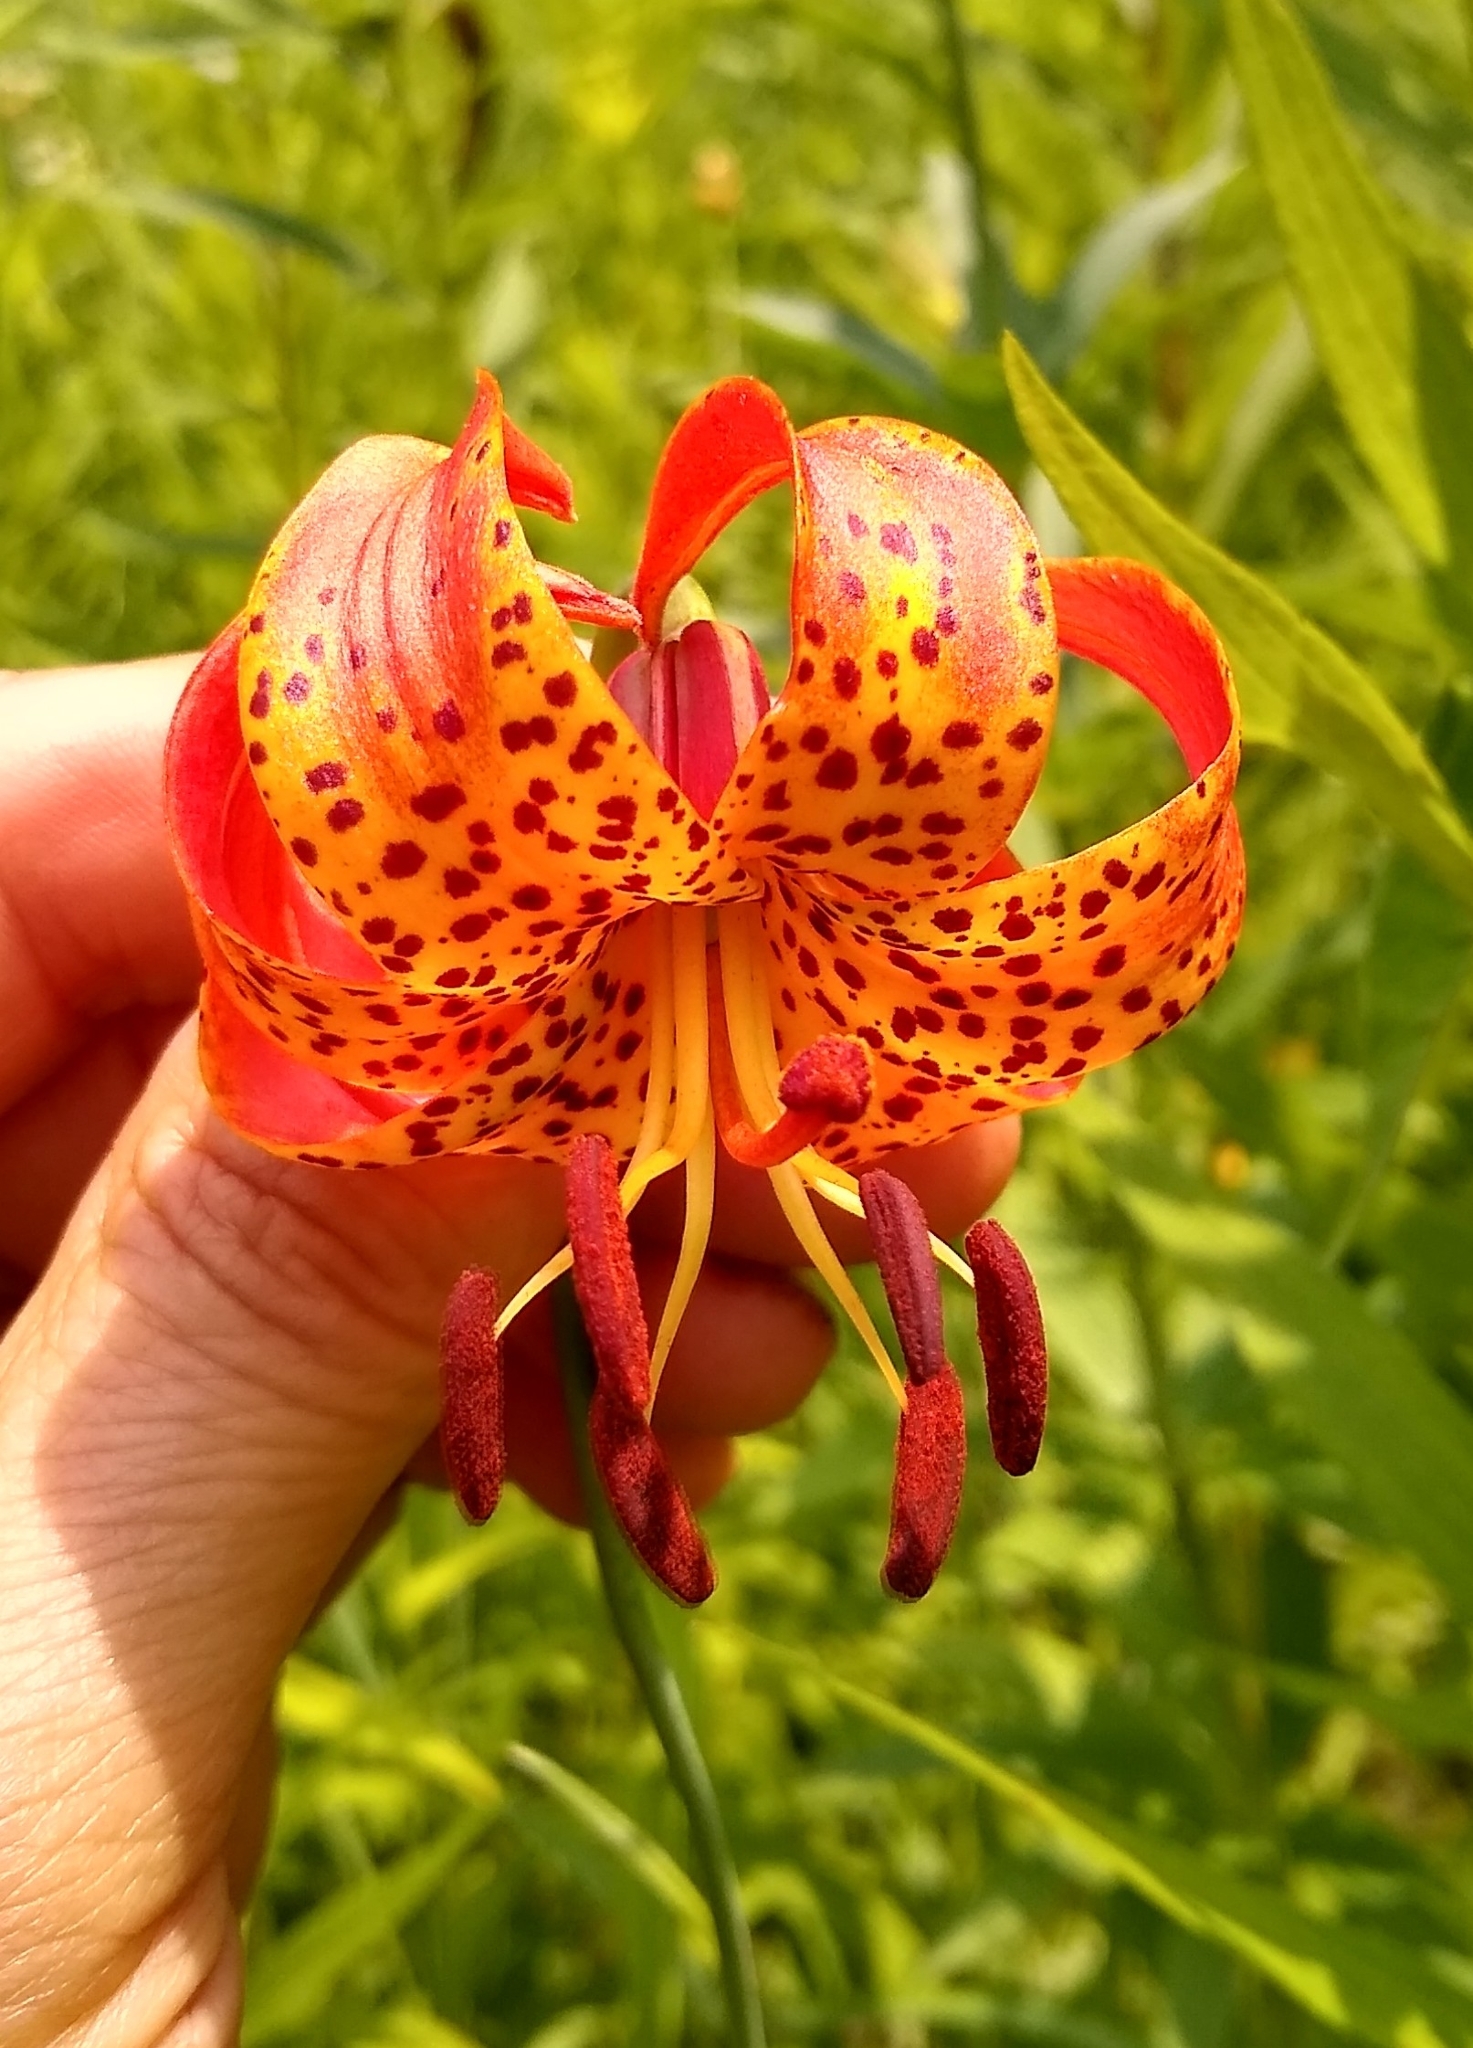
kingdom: Plantae
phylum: Tracheophyta
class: Liliopsida
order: Liliales
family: Liliaceae
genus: Lilium
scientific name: Lilium michiganense
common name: Michigan lily
